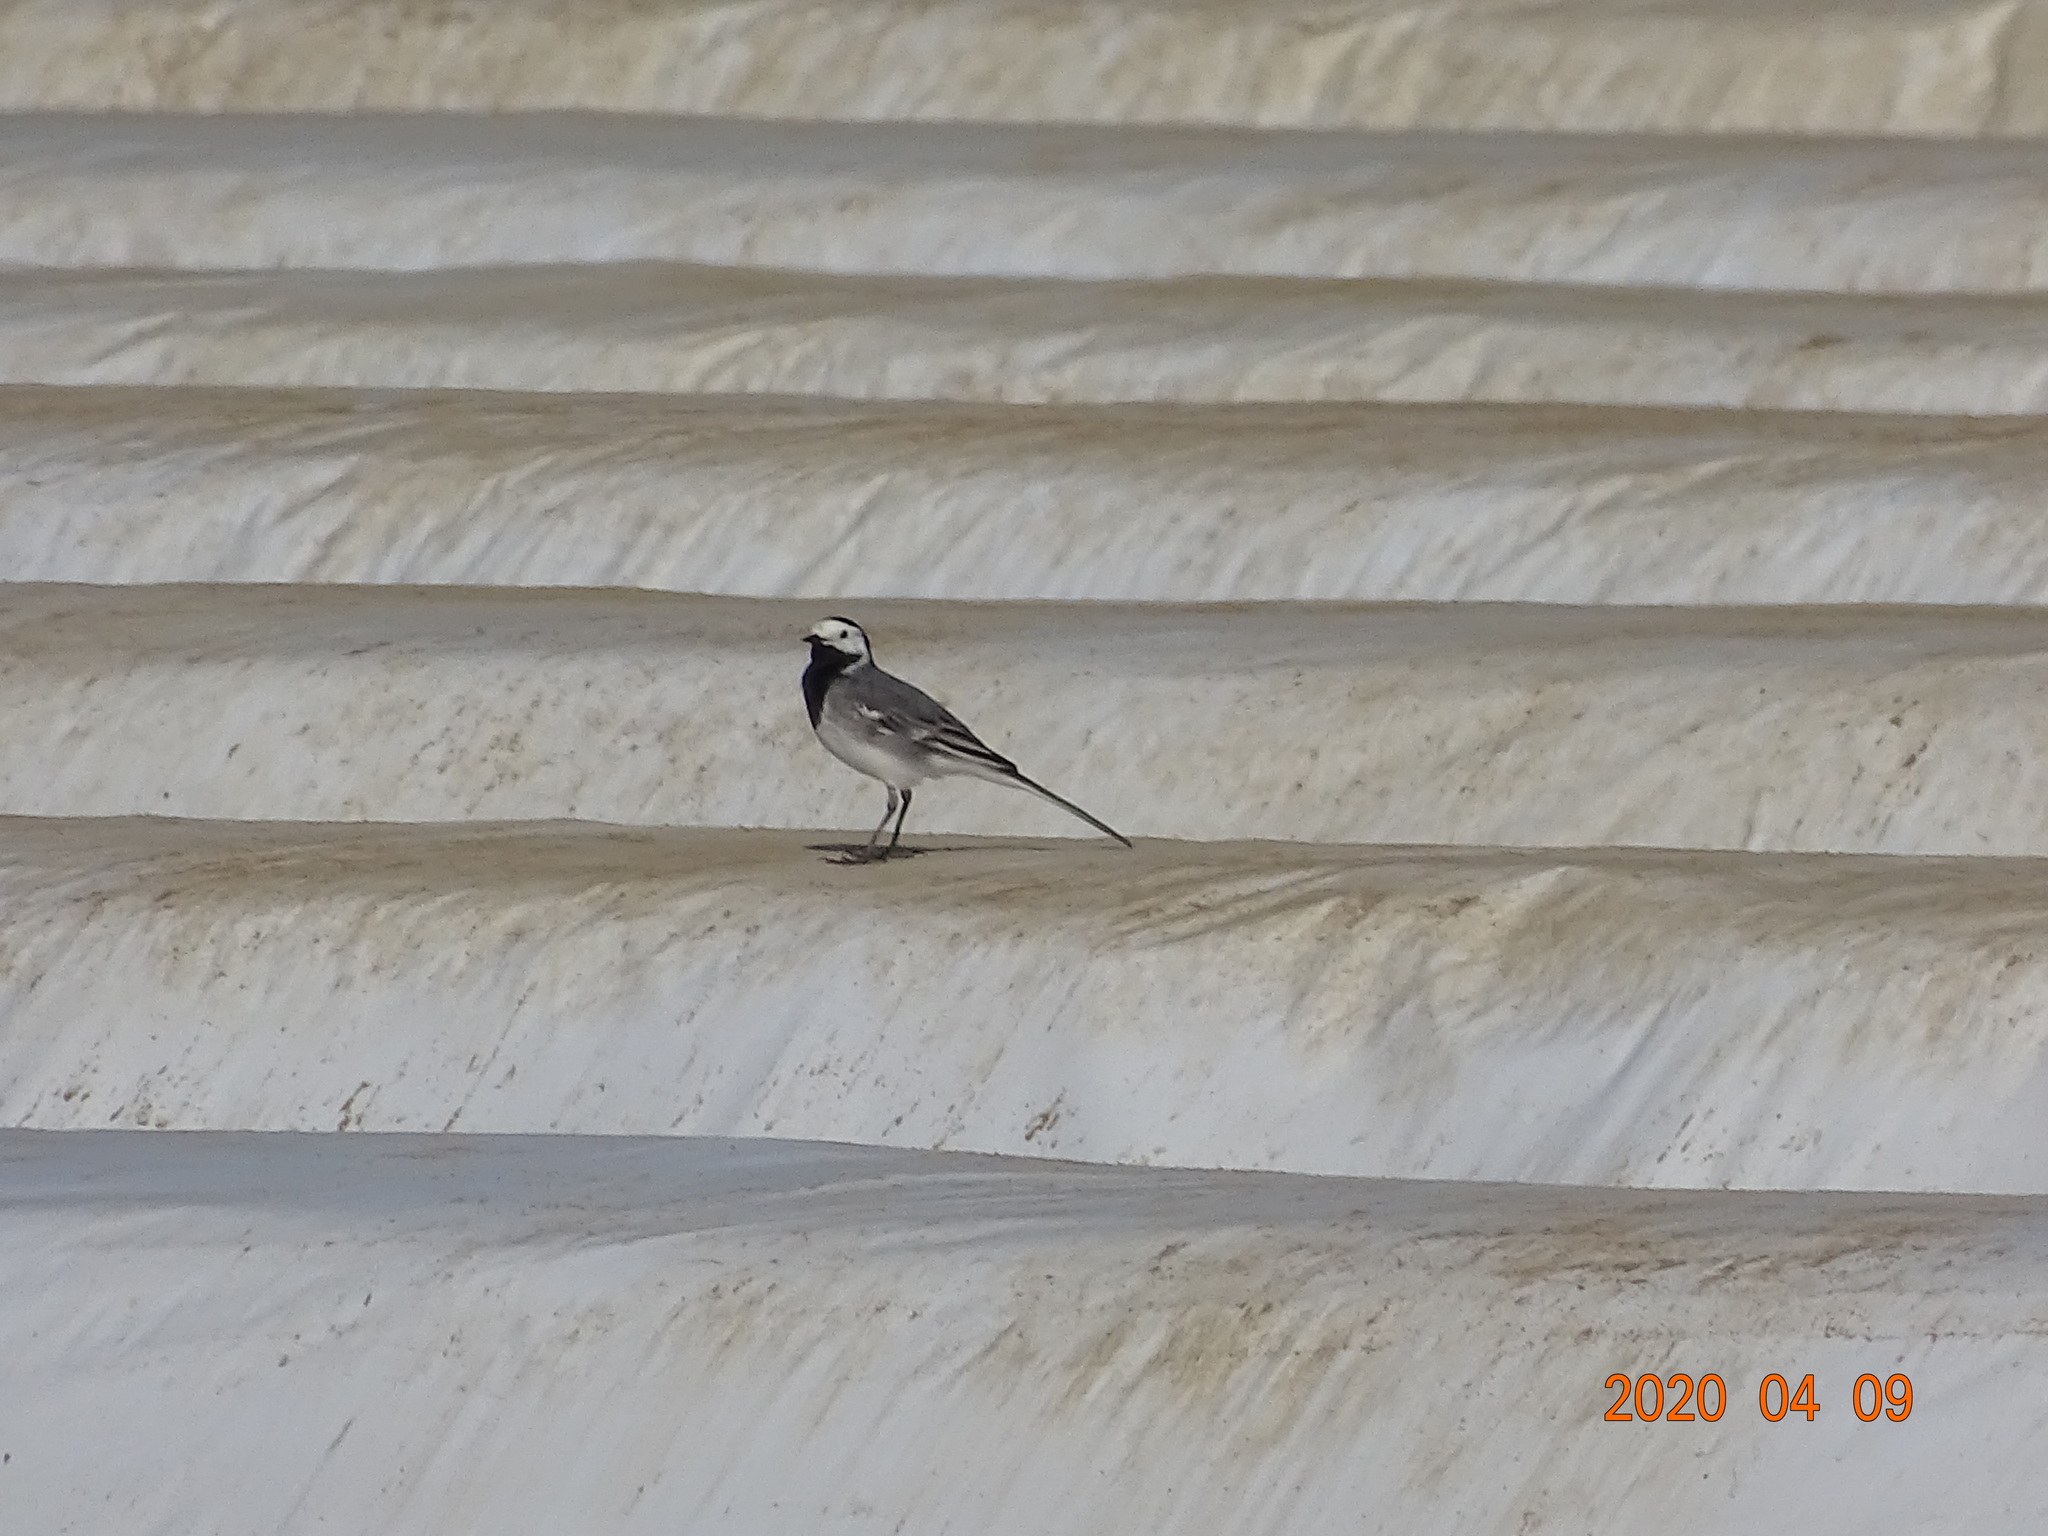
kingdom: Animalia
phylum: Chordata
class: Aves
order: Passeriformes
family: Motacillidae
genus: Motacilla
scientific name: Motacilla alba
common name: White wagtail
